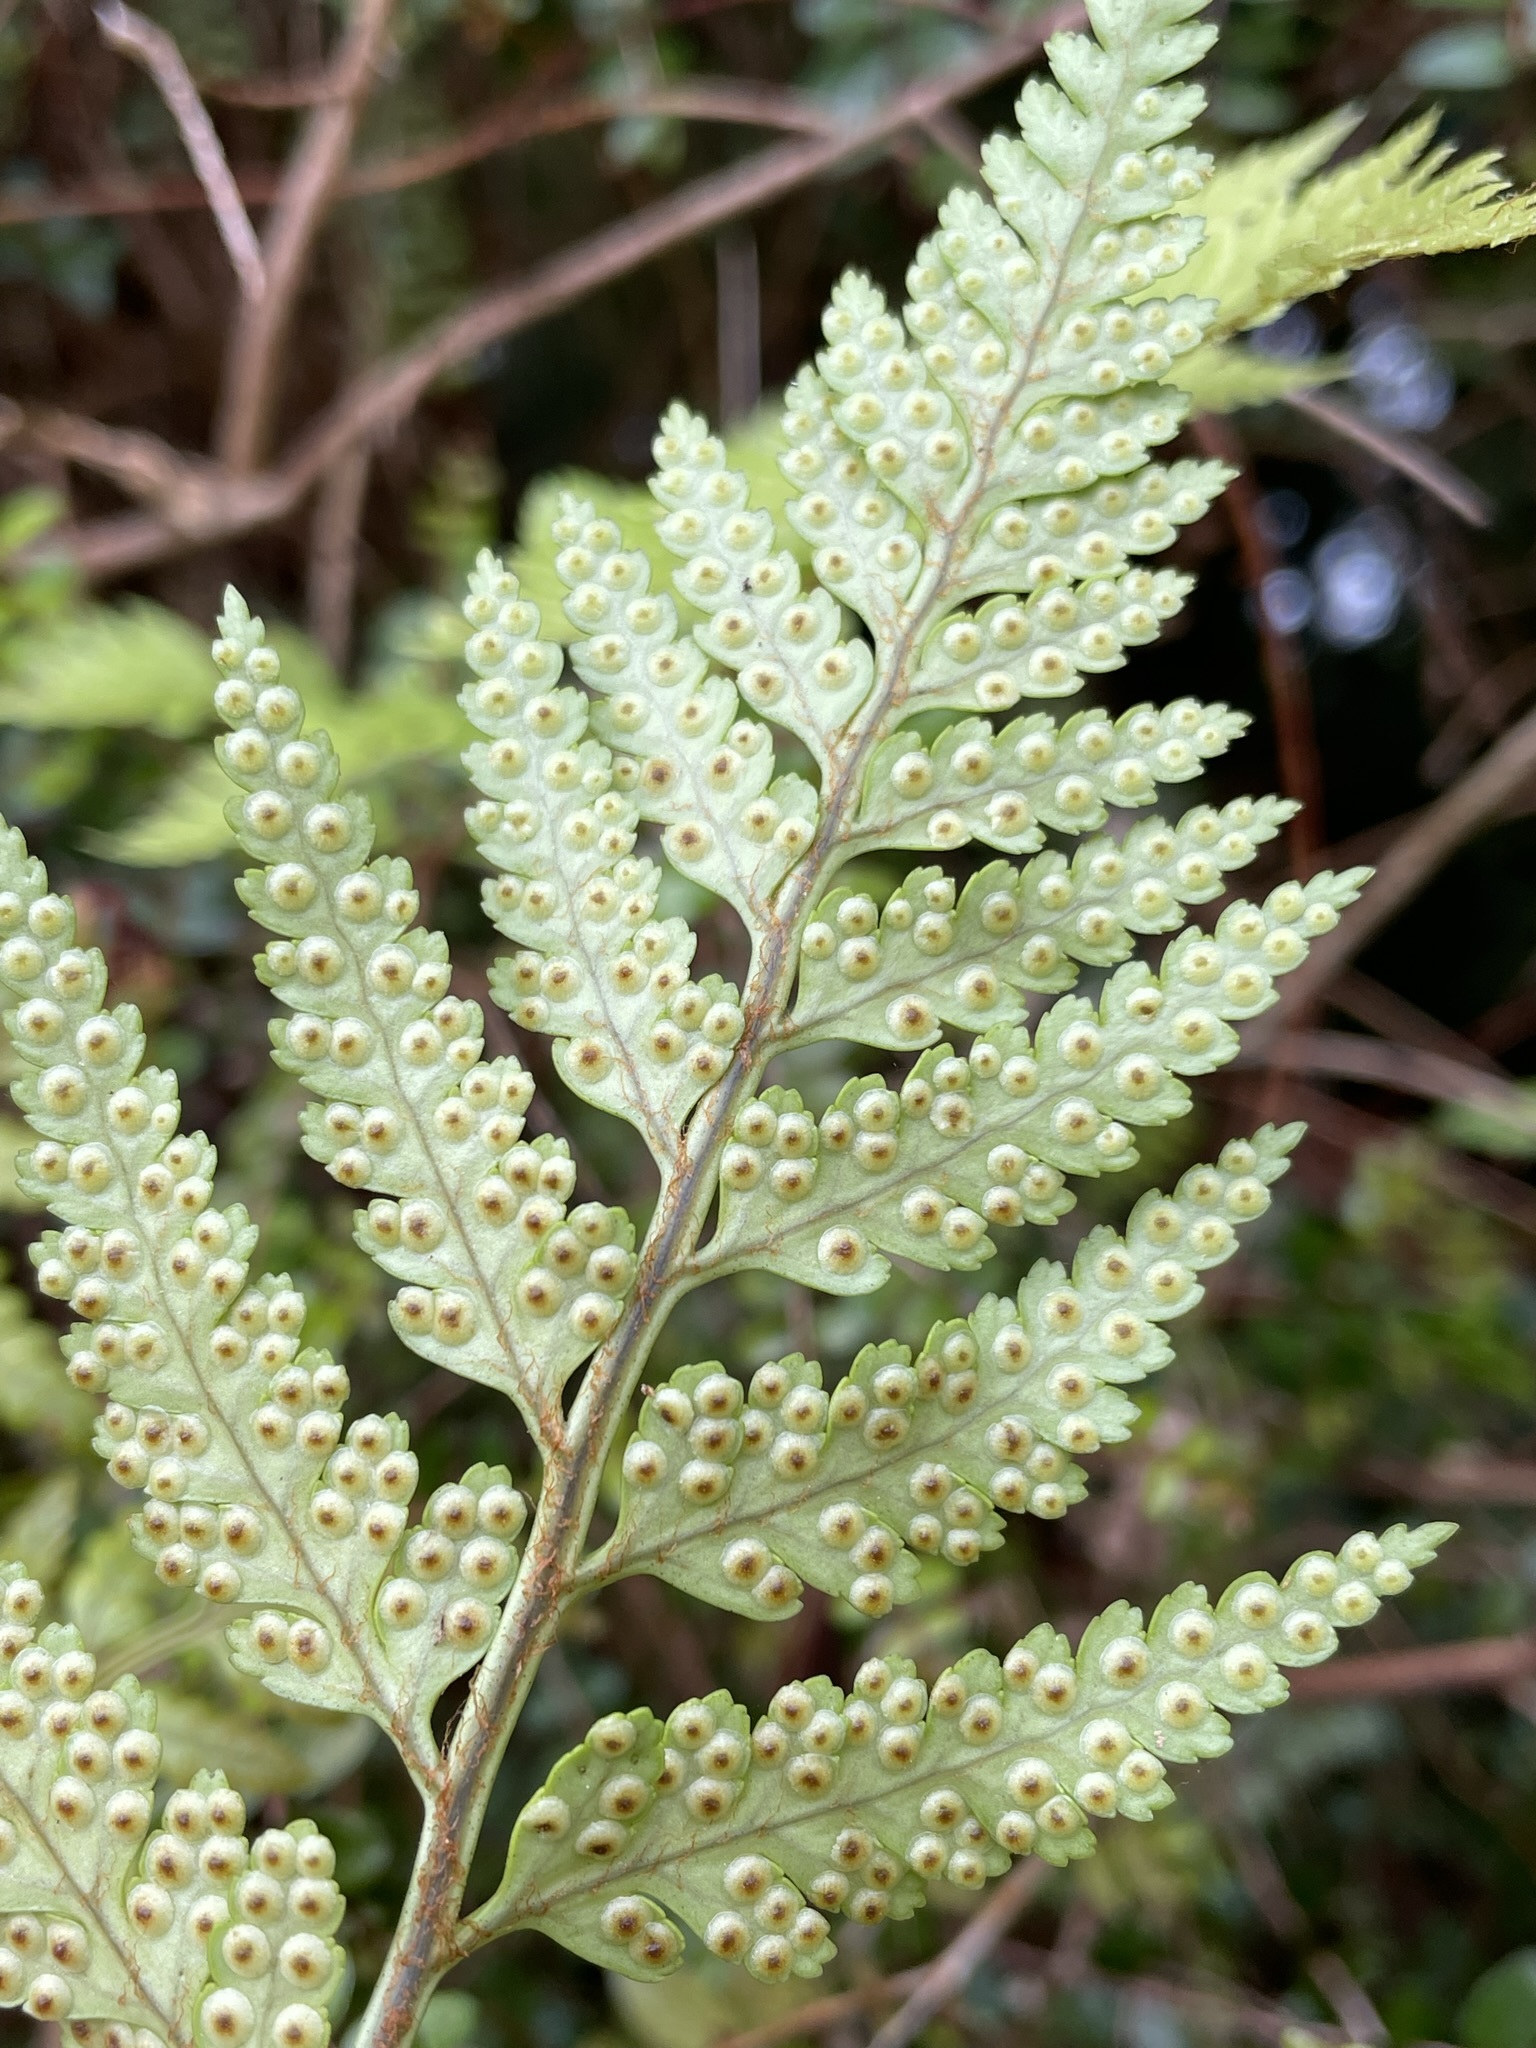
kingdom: Plantae
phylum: Tracheophyta
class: Polypodiopsida
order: Polypodiales
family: Dryopteridaceae
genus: Rumohra
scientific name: Rumohra adiantiformis
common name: Leather fern
